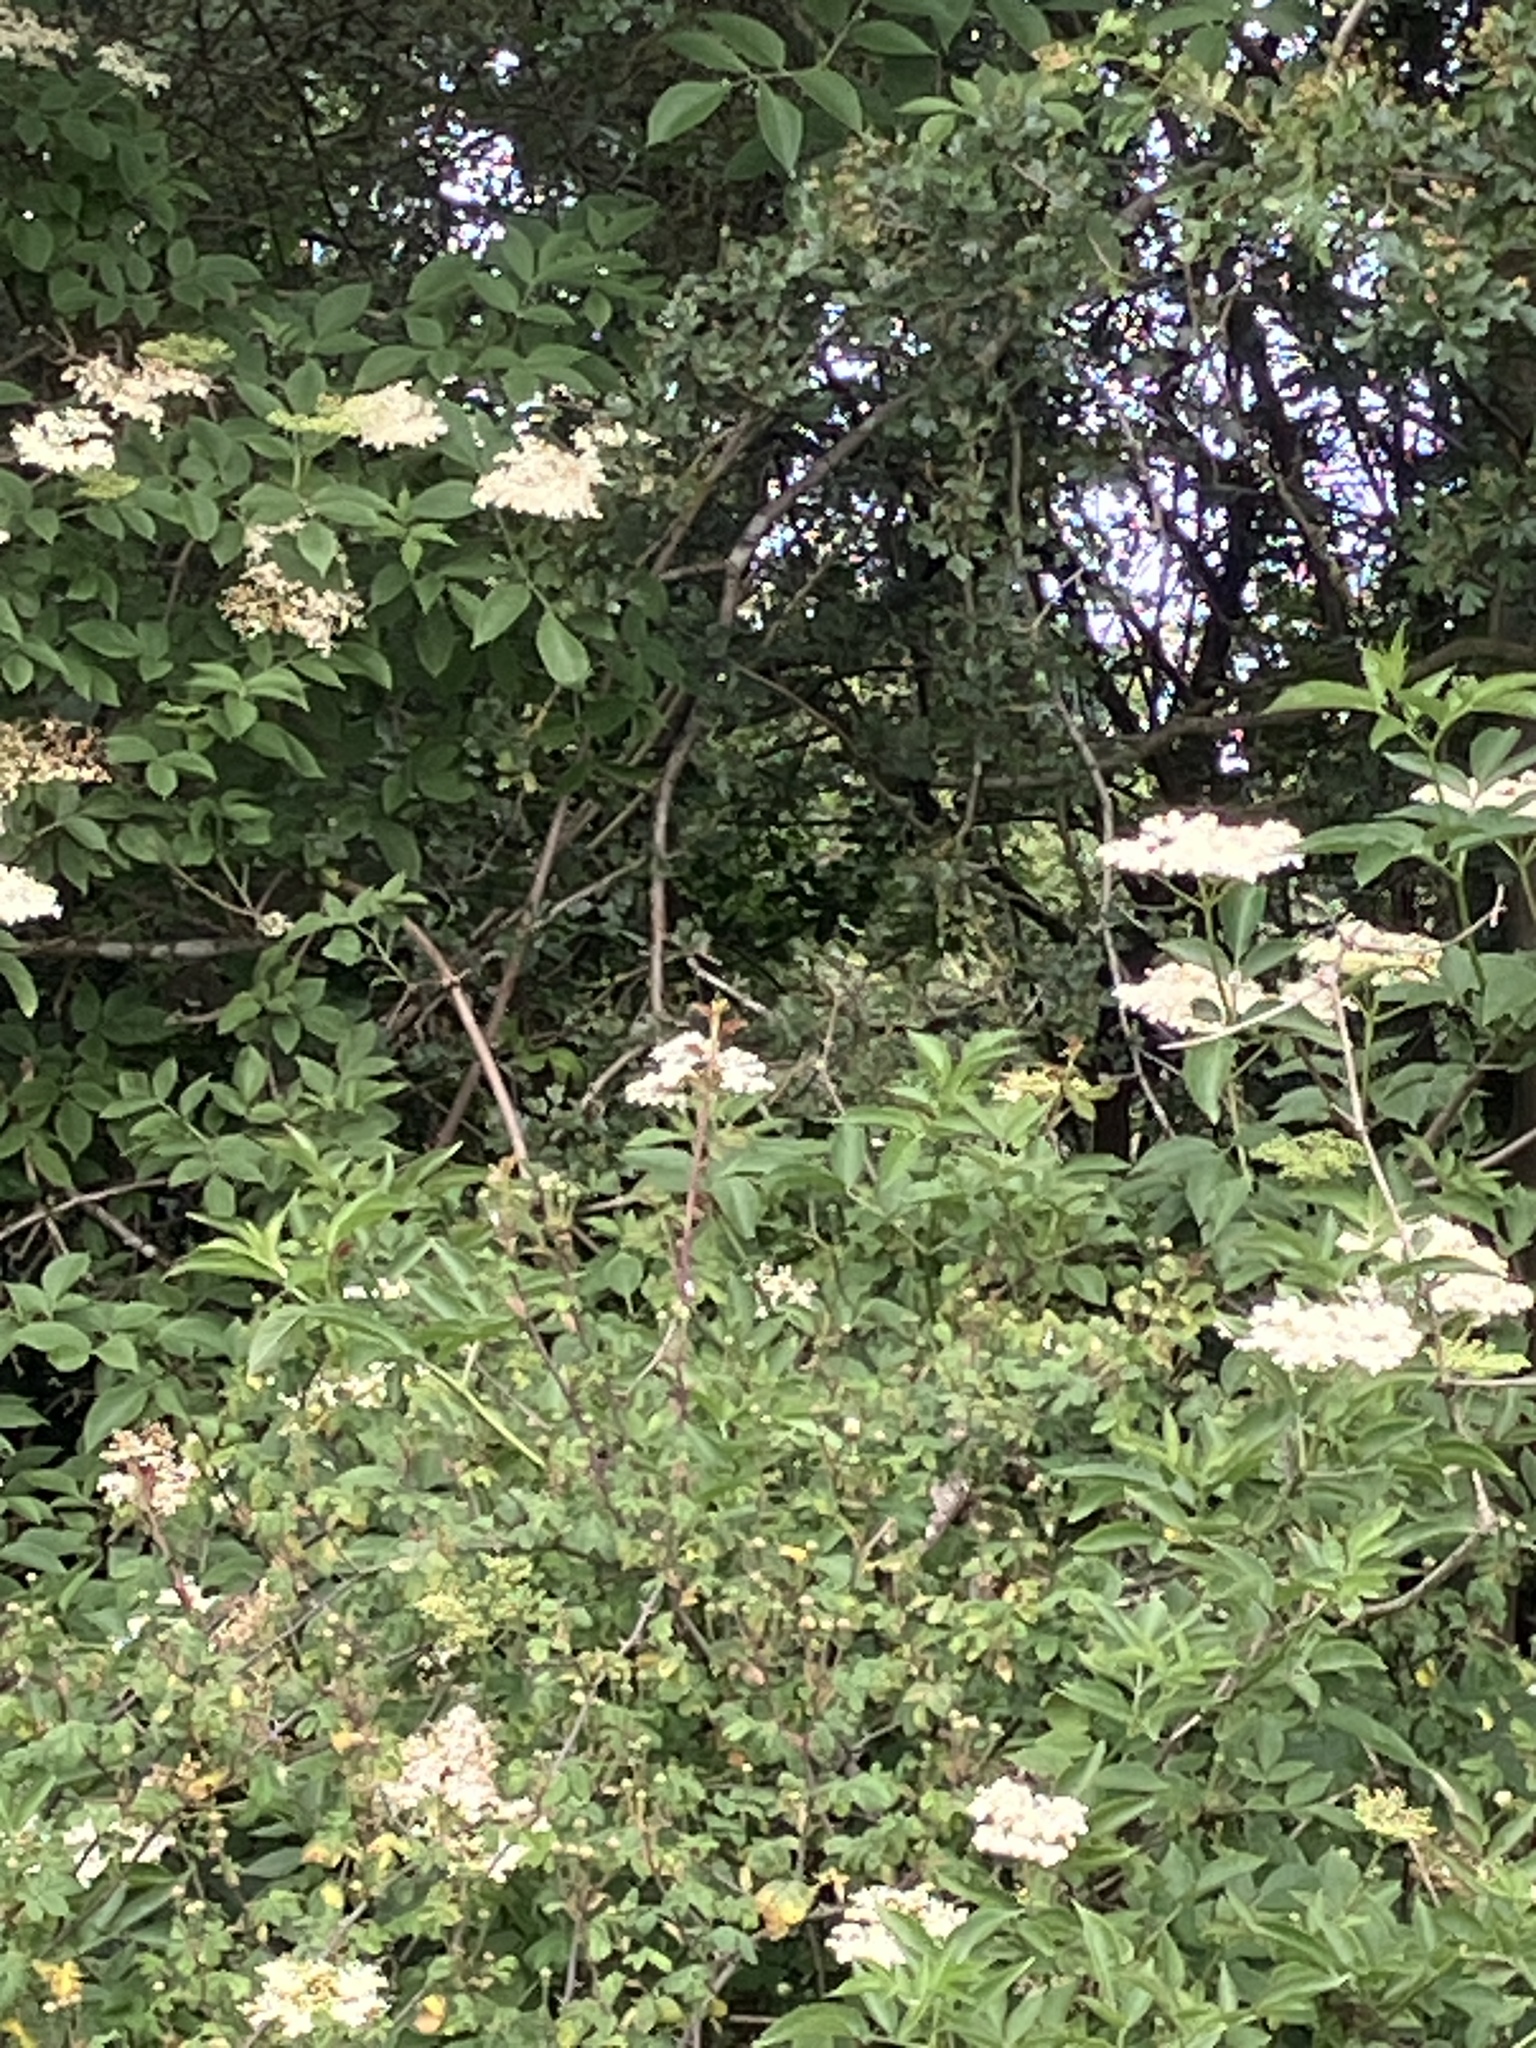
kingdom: Plantae
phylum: Tracheophyta
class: Magnoliopsida
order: Dipsacales
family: Viburnaceae
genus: Sambucus
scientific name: Sambucus nigra
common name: Elder
